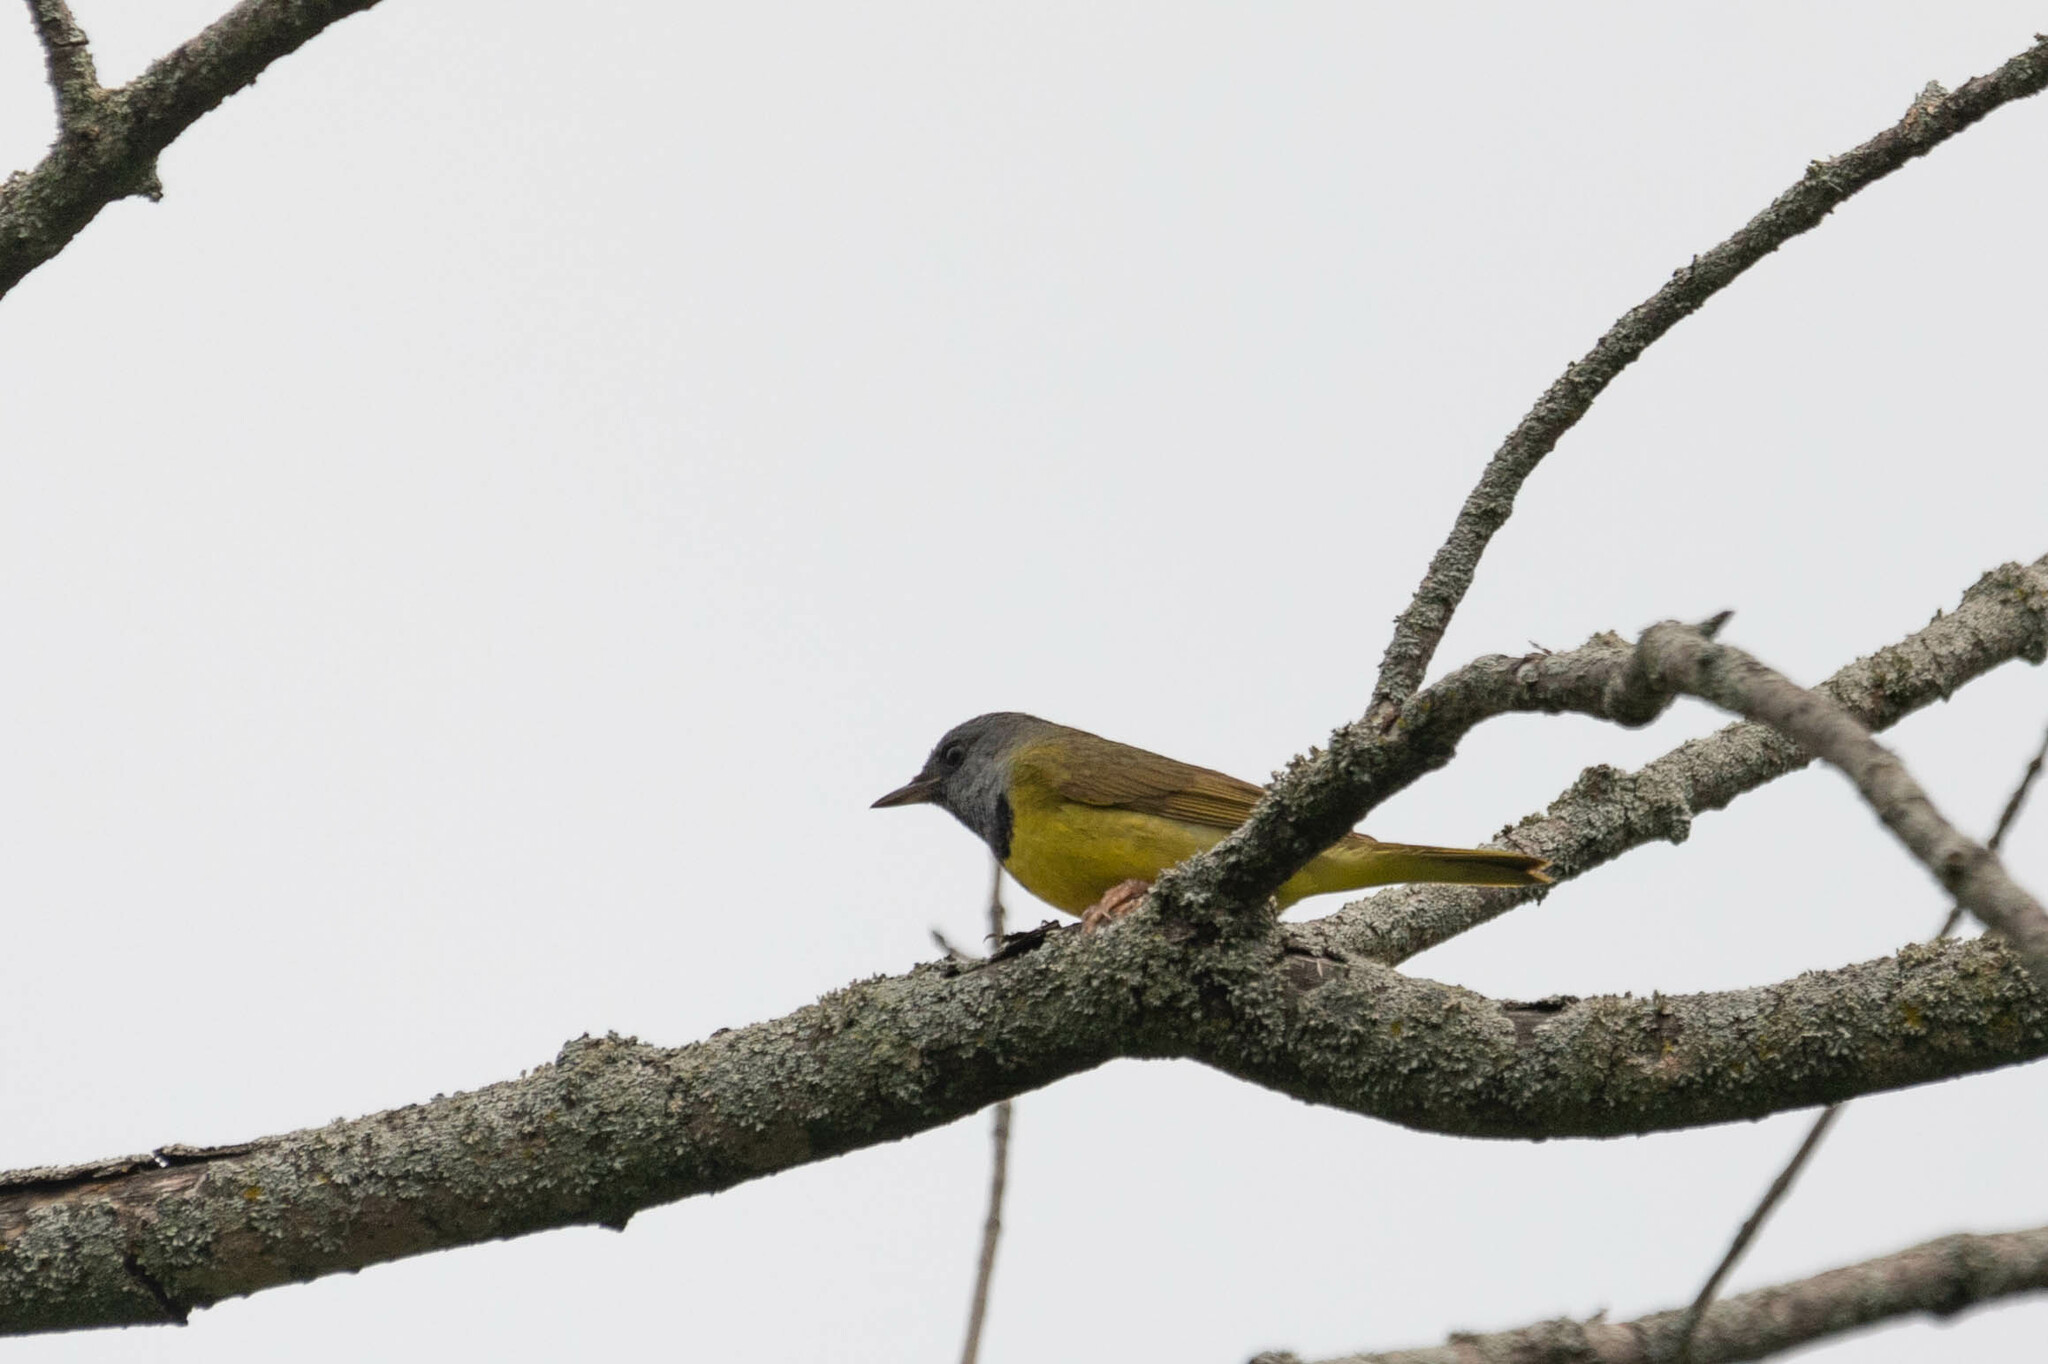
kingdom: Animalia
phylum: Chordata
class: Aves
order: Passeriformes
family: Parulidae
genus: Geothlypis
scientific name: Geothlypis philadelphia
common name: Mourning warbler
